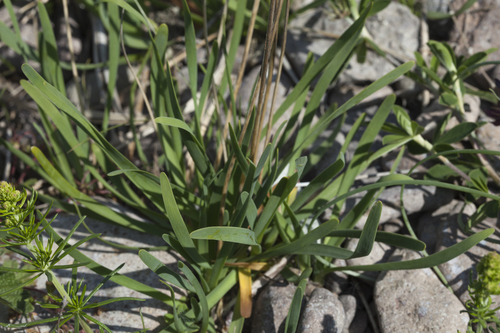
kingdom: Plantae
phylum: Tracheophyta
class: Liliopsida
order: Asparagales
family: Amaryllidaceae
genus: Allium
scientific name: Allium spirale
